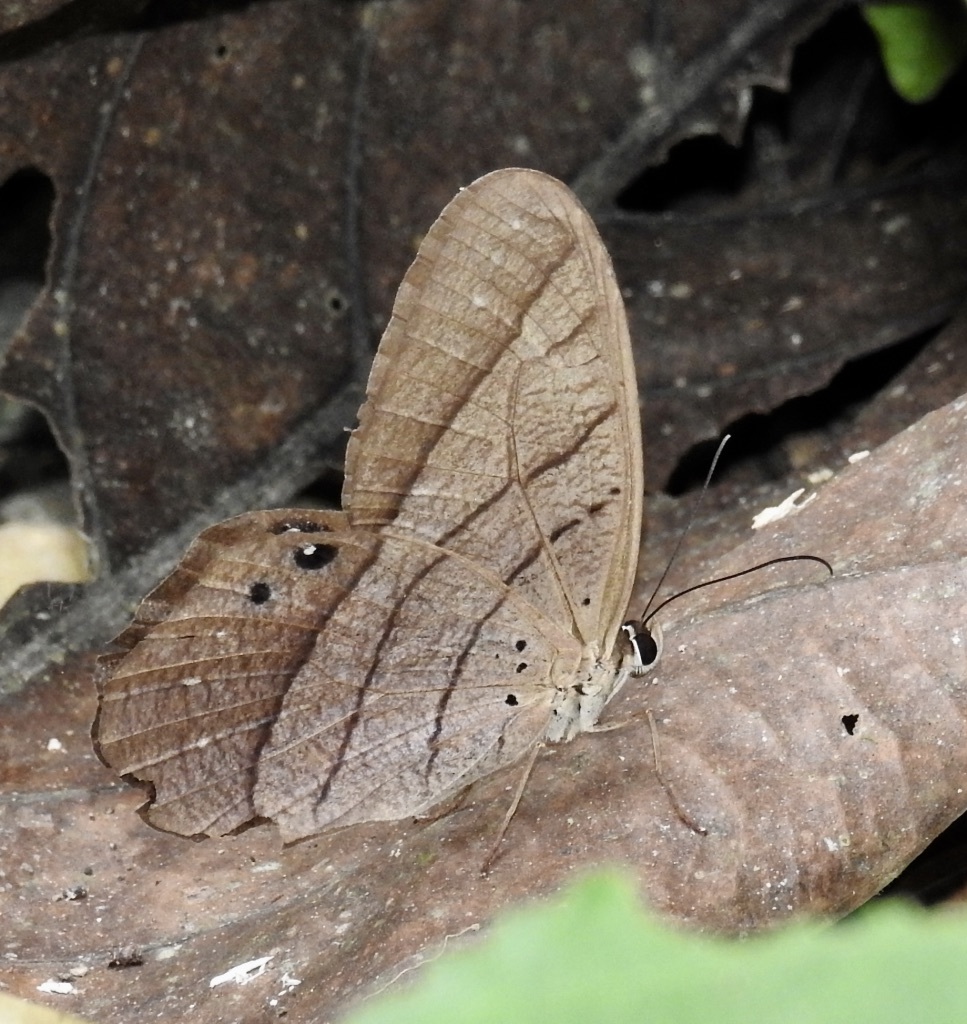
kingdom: Animalia
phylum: Arthropoda
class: Insecta
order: Lepidoptera
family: Nymphalidae
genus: Pierella
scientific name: Pierella luna
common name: Moon satyr
